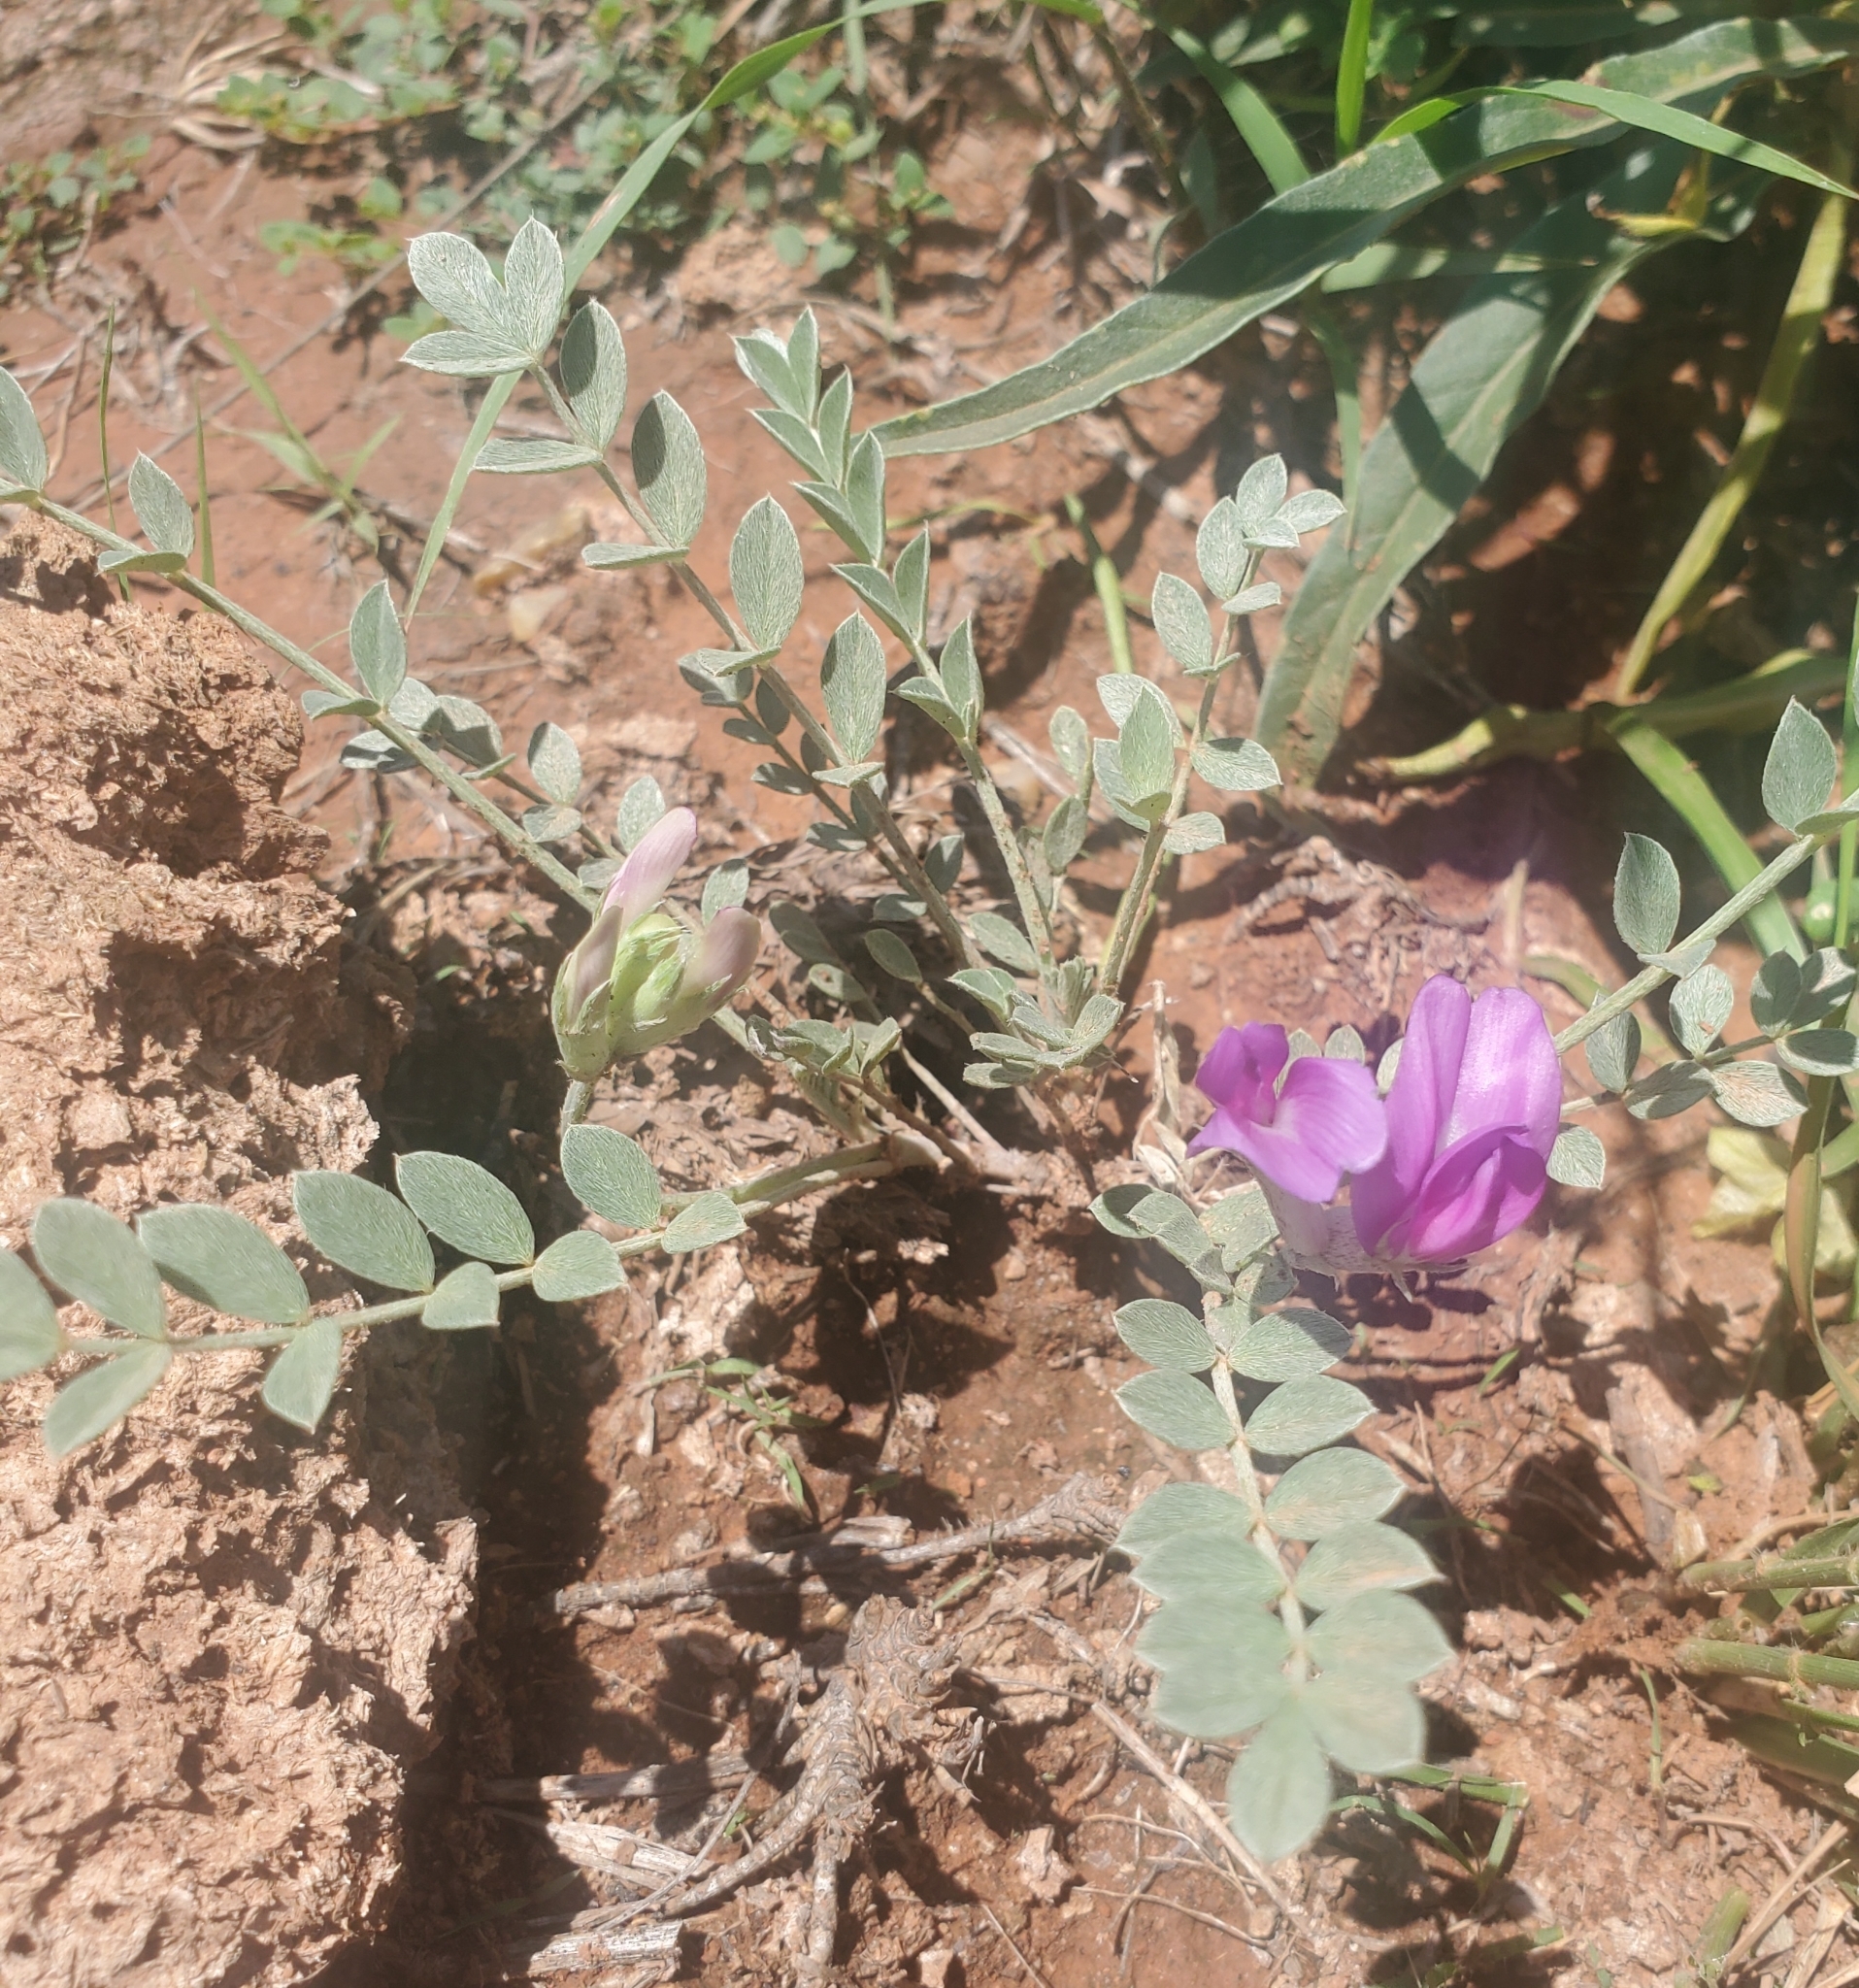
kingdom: Plantae
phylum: Tracheophyta
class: Magnoliopsida
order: Fabales
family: Fabaceae
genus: Astragalus
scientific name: Astragalus missouriensis
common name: Missouri milk-vetch
